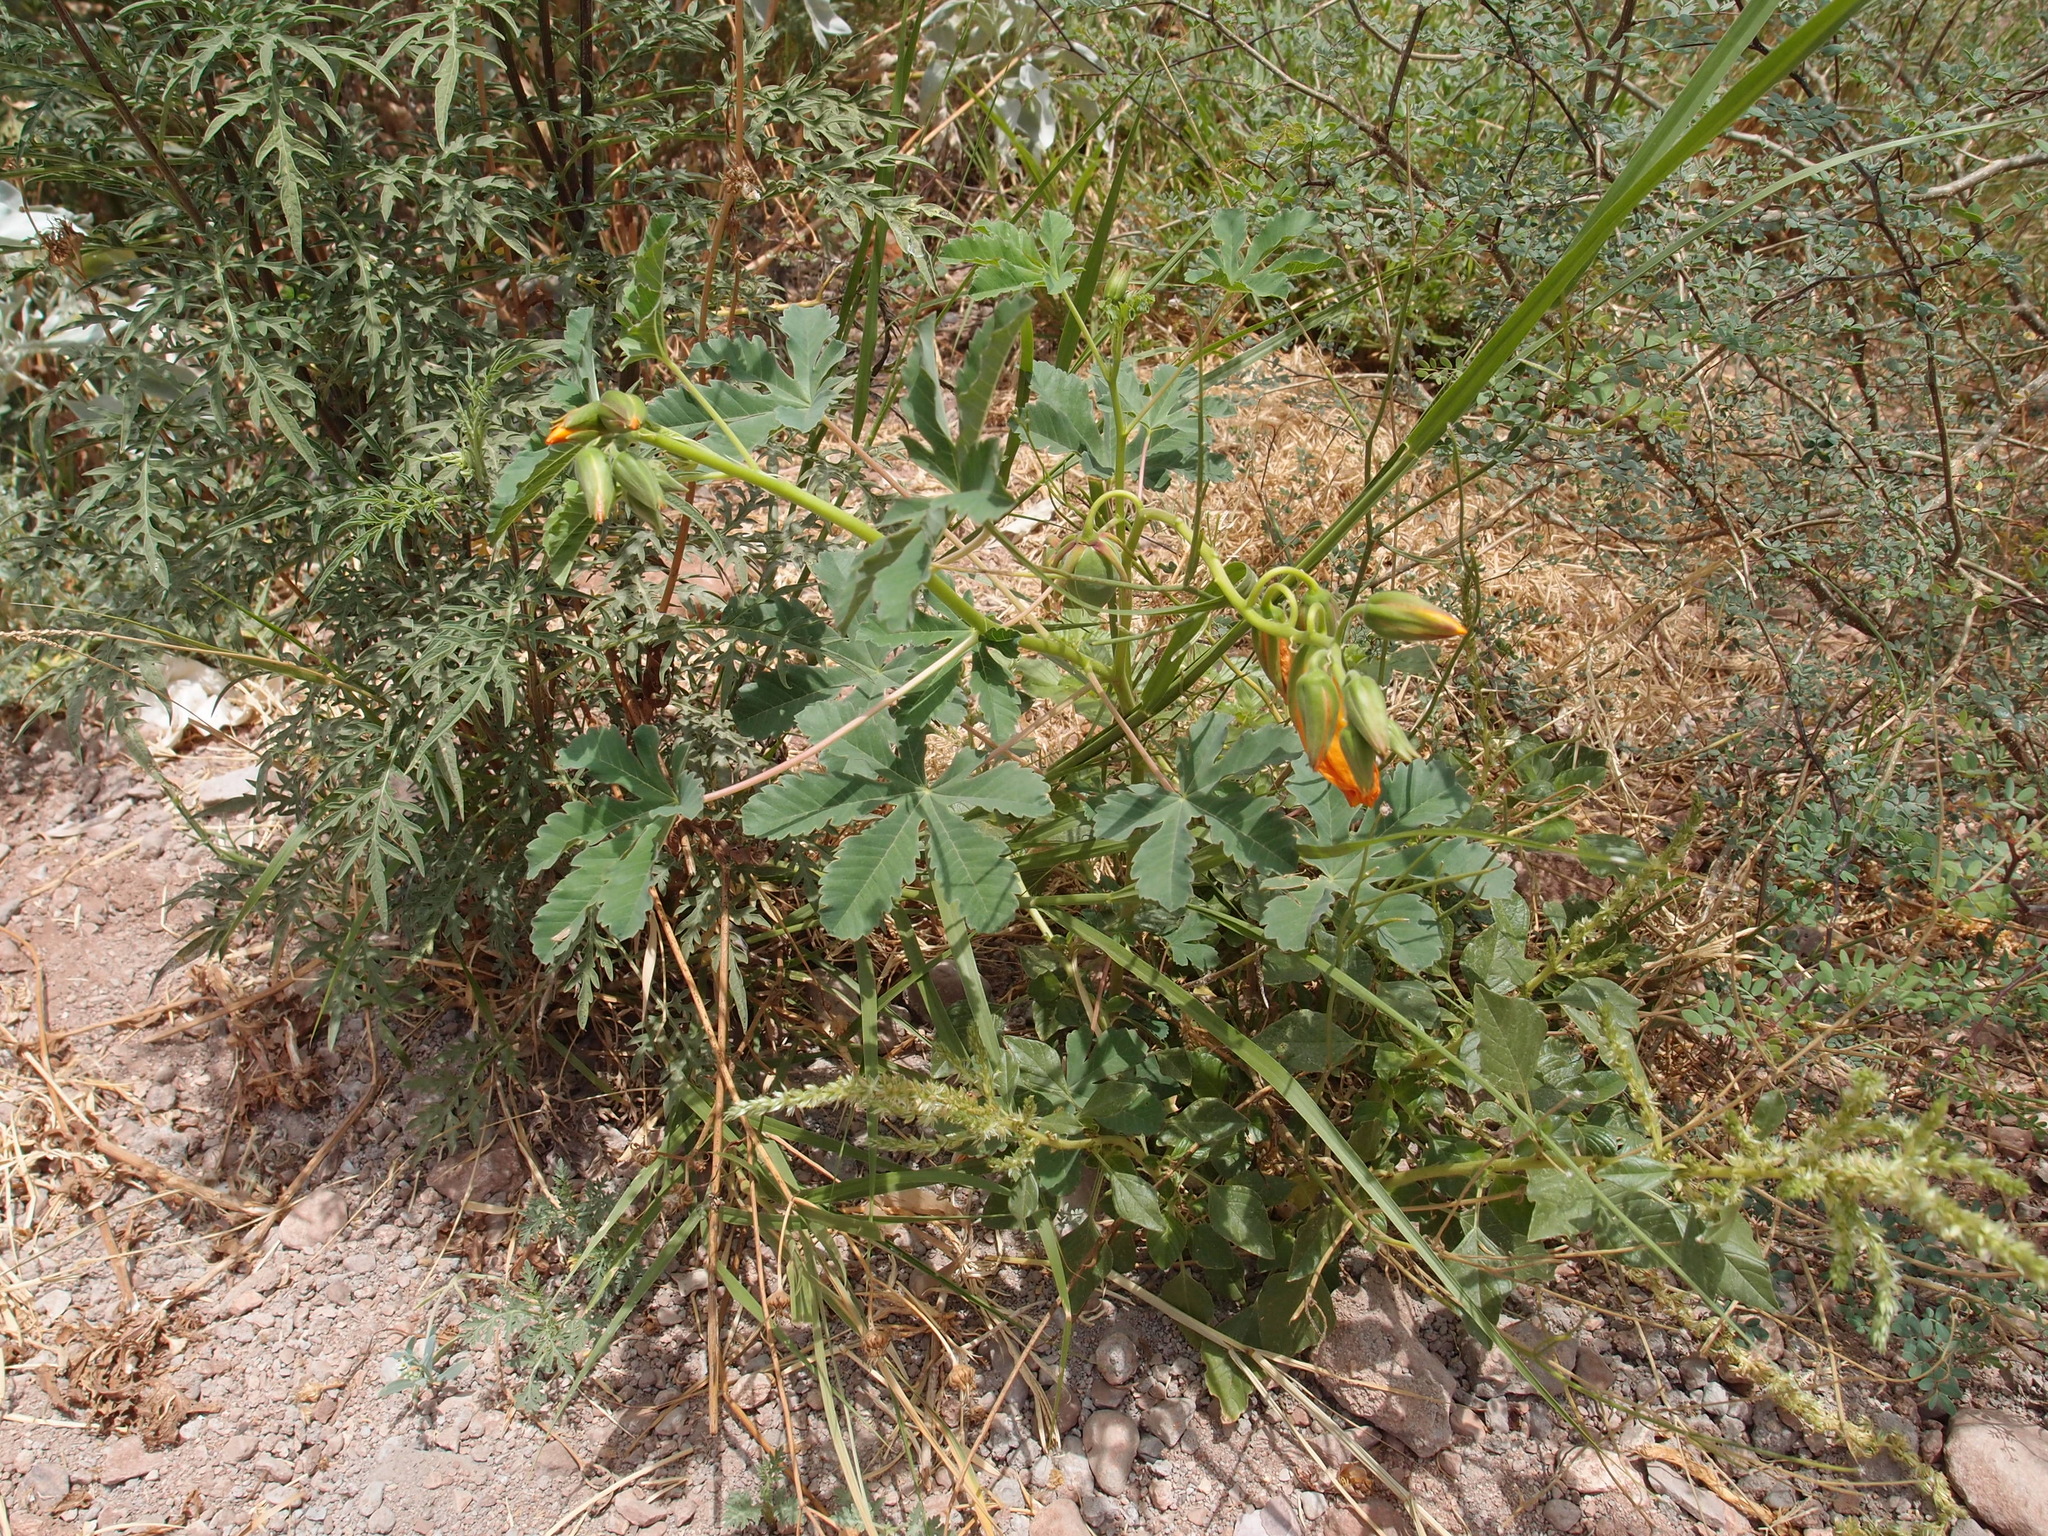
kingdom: Plantae
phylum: Tracheophyta
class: Magnoliopsida
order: Malvales
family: Cochlospermaceae
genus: Cochlospermum
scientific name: Cochlospermum palmatifidum
